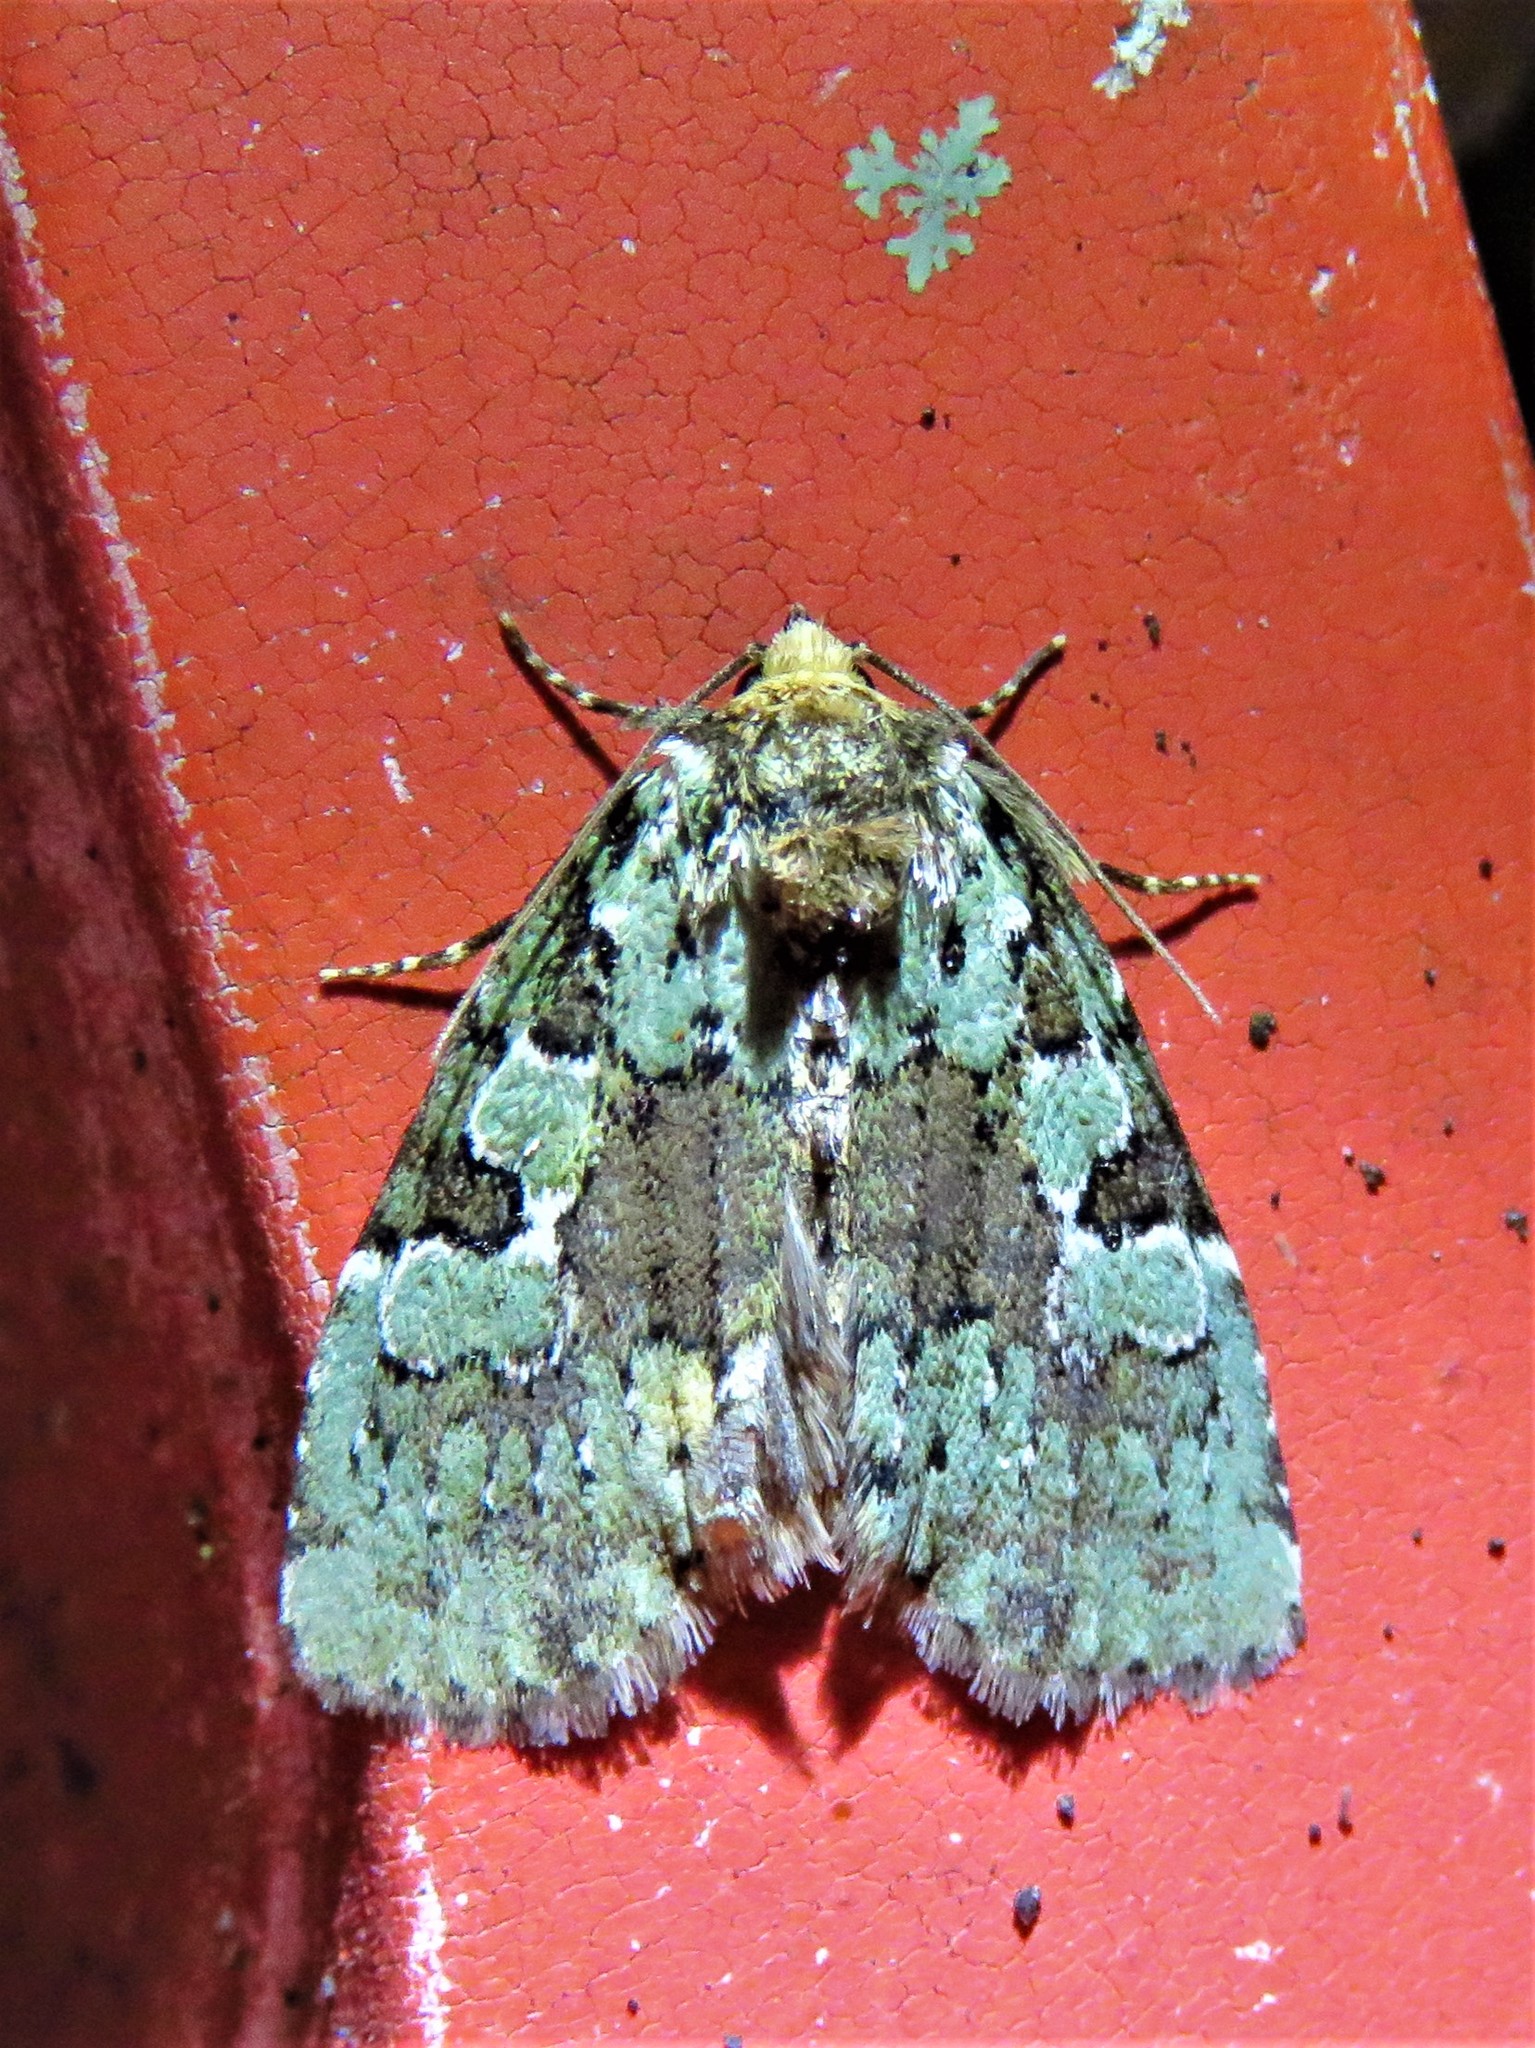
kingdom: Animalia
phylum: Arthropoda
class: Insecta
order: Lepidoptera
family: Noctuidae
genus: Leuconycta
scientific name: Leuconycta lepidula
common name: Marbled-green leuconycta moth
